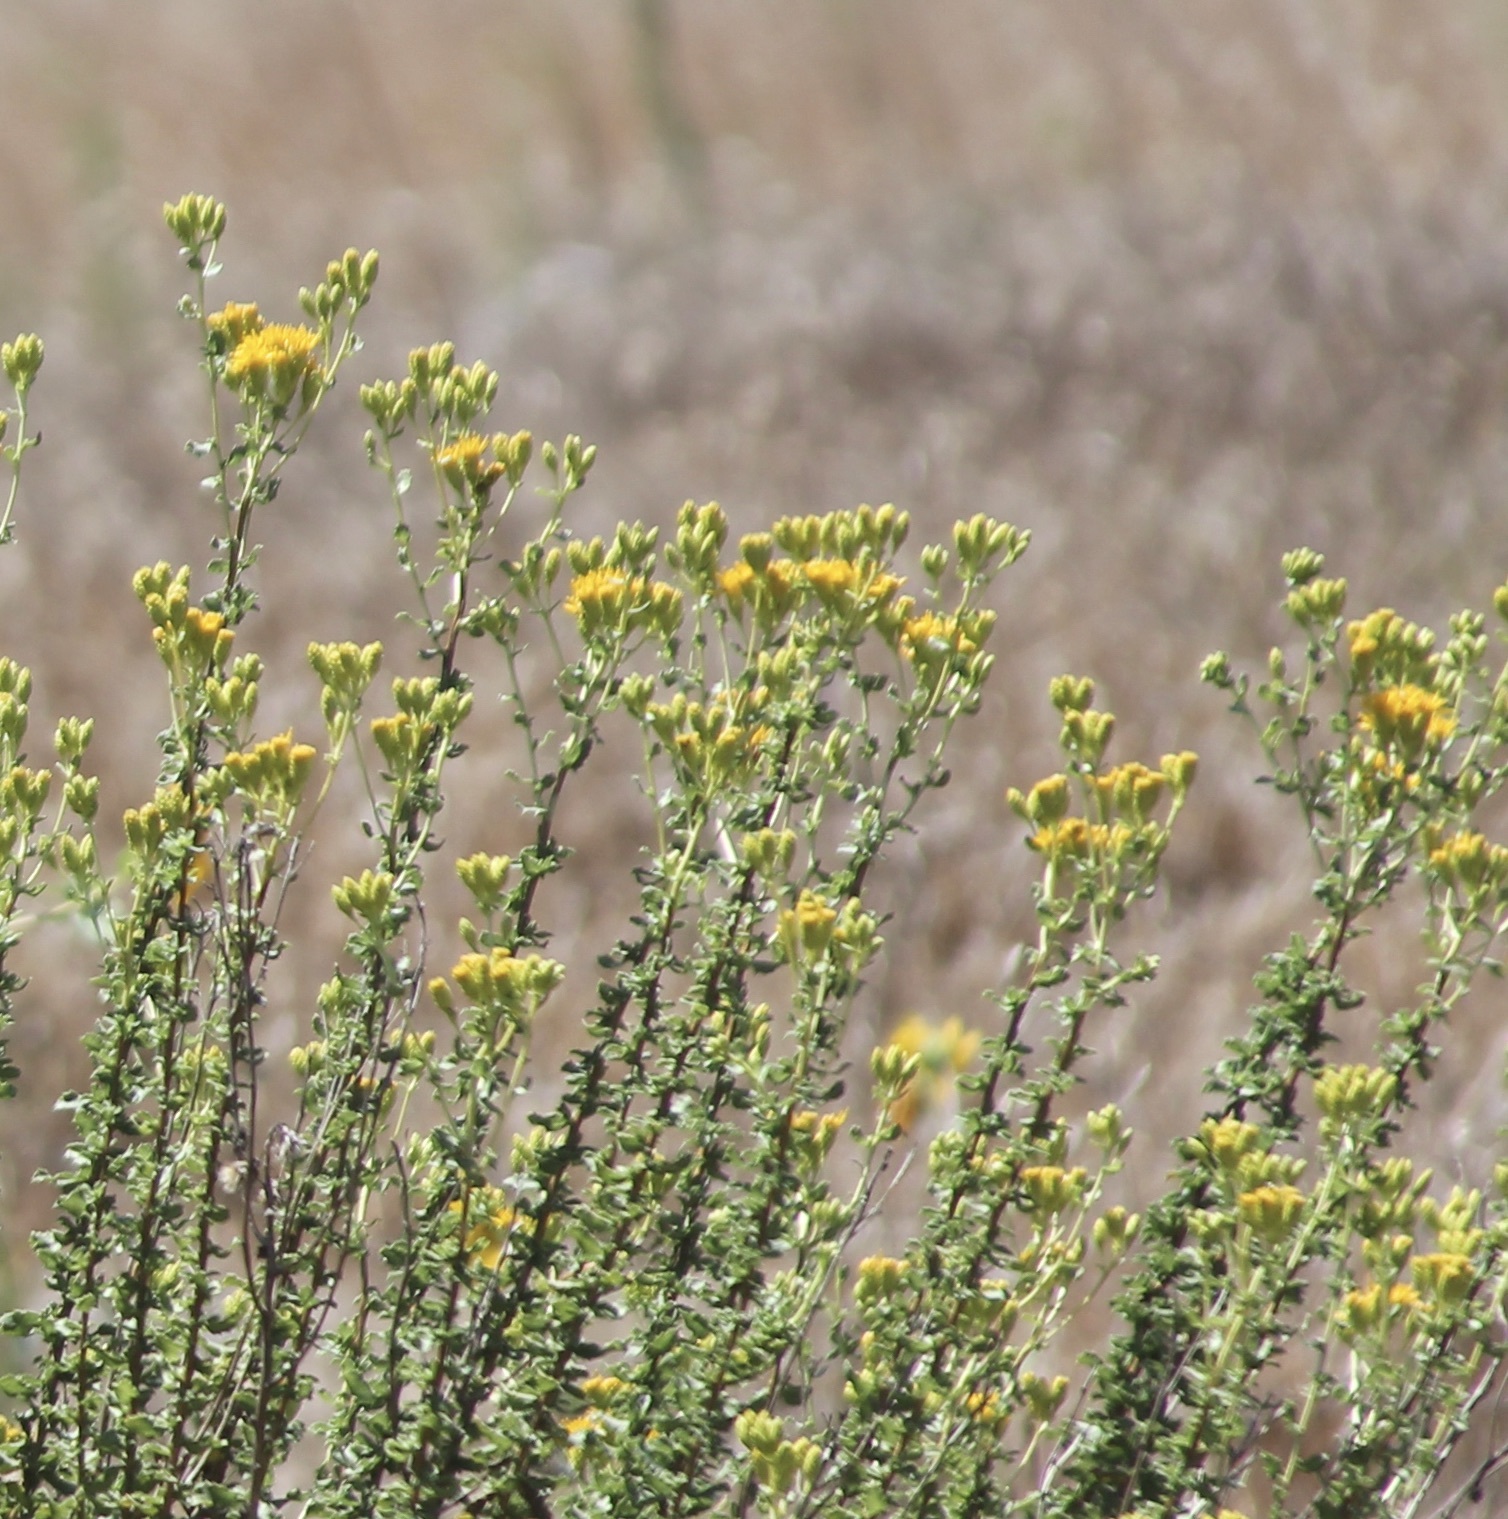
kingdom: Plantae
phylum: Tracheophyta
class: Magnoliopsida
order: Asterales
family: Asteraceae
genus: Isocoma
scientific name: Isocoma menziesii
